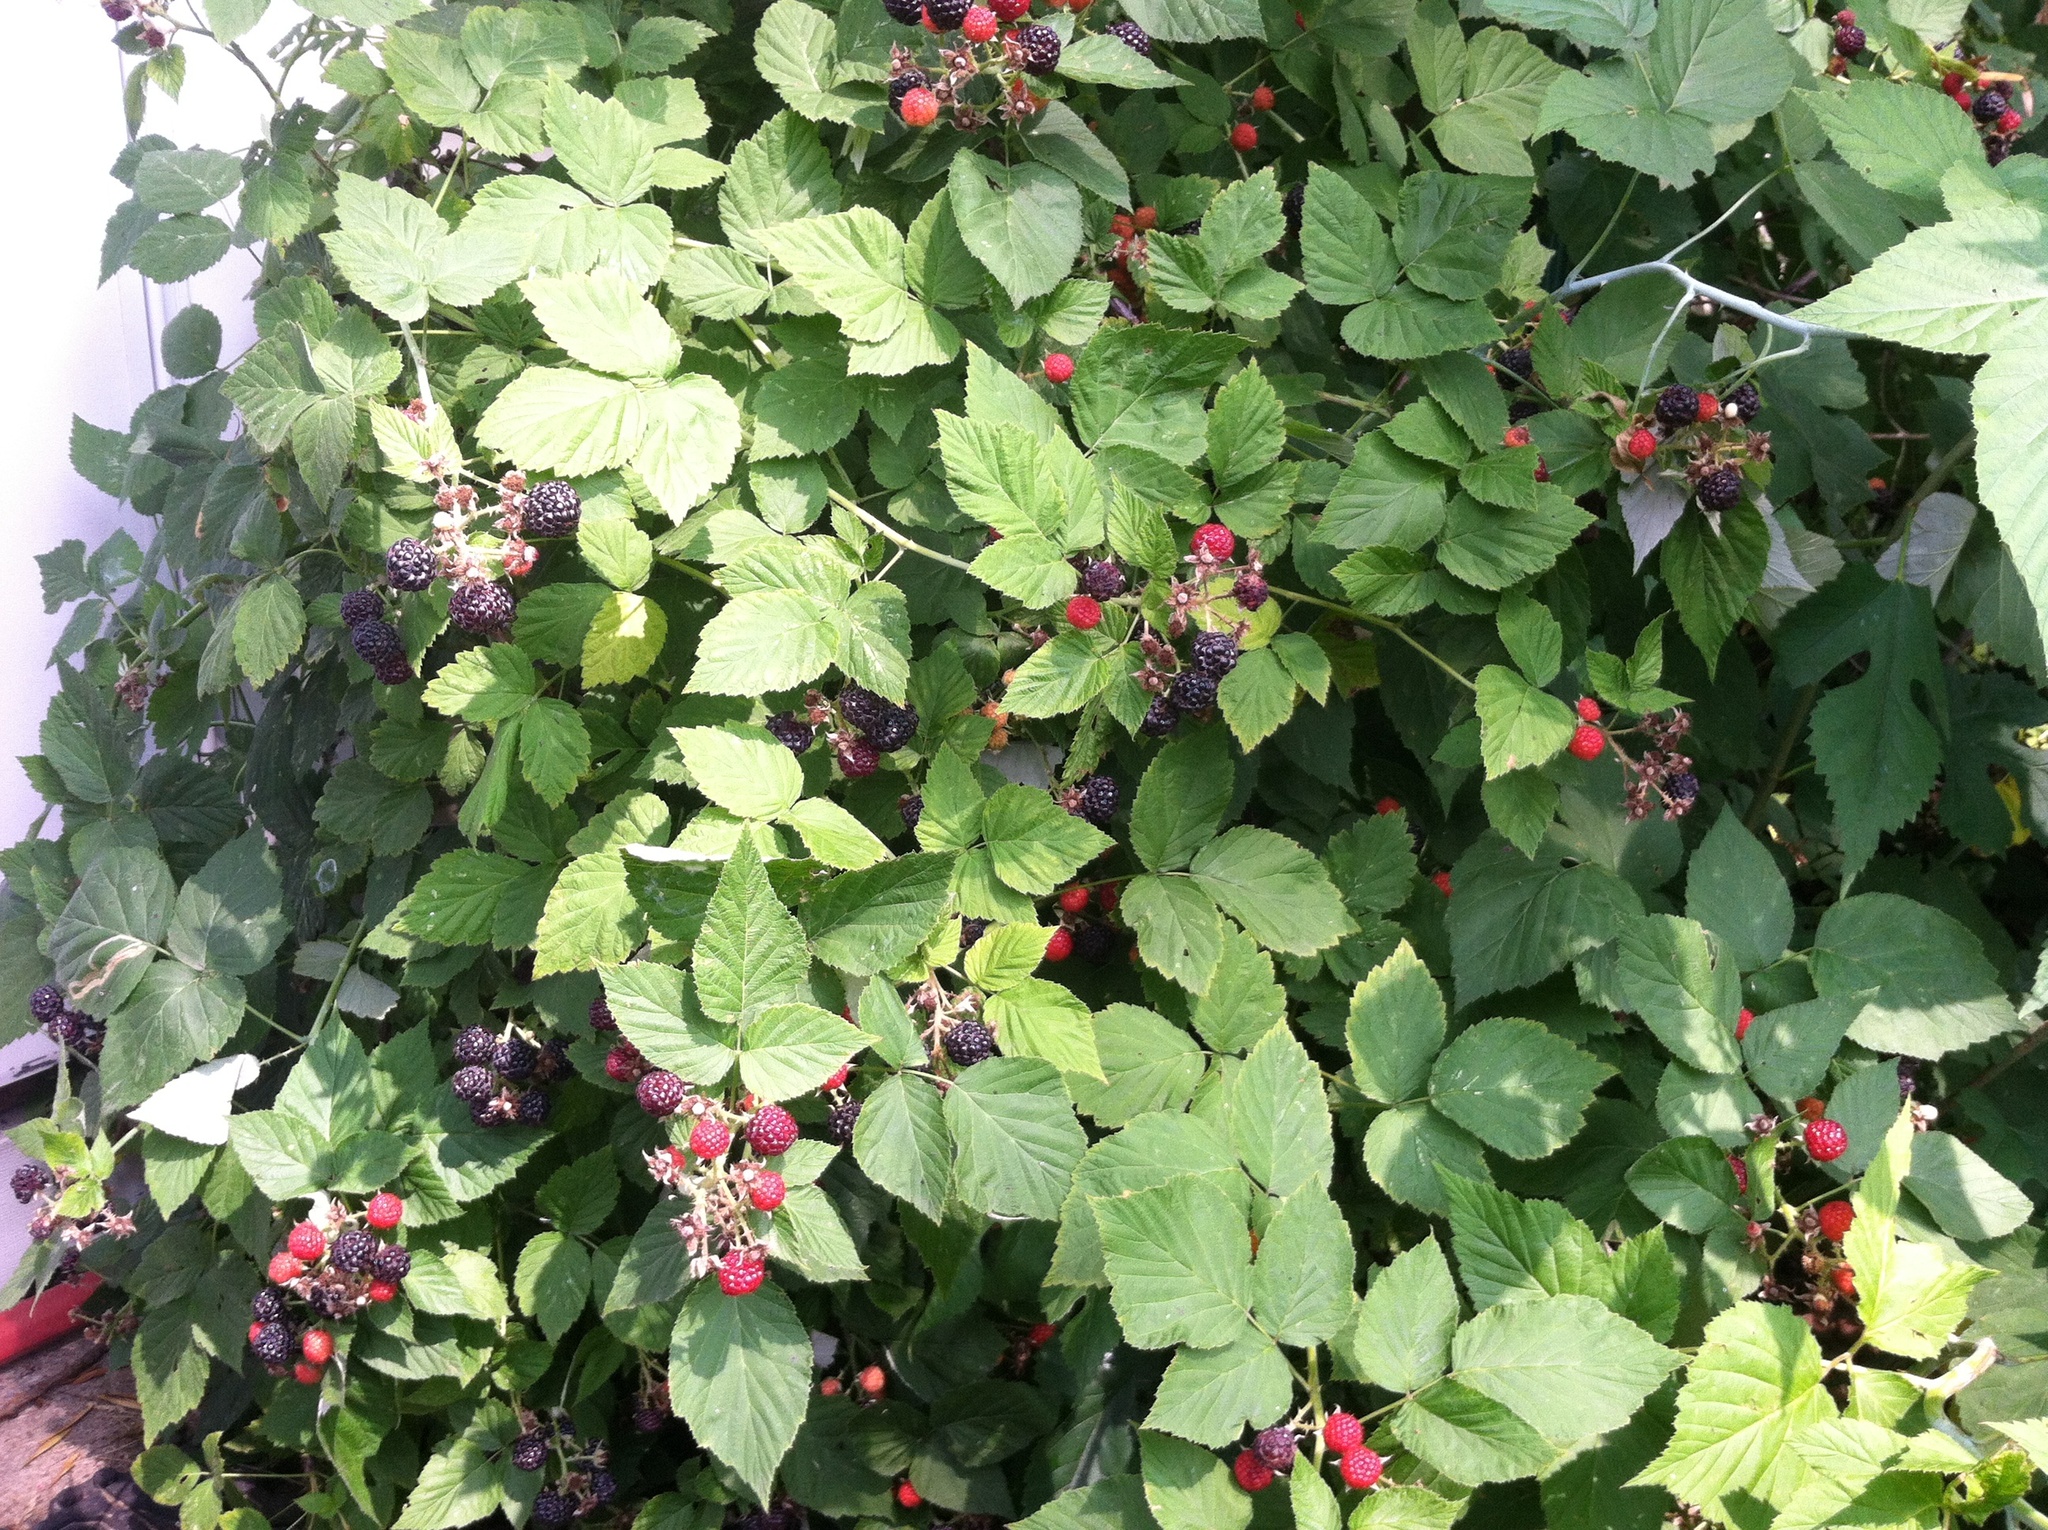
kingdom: Plantae
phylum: Tracheophyta
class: Magnoliopsida
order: Rosales
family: Rosaceae
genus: Rubus
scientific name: Rubus occidentalis
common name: Black raspberry
